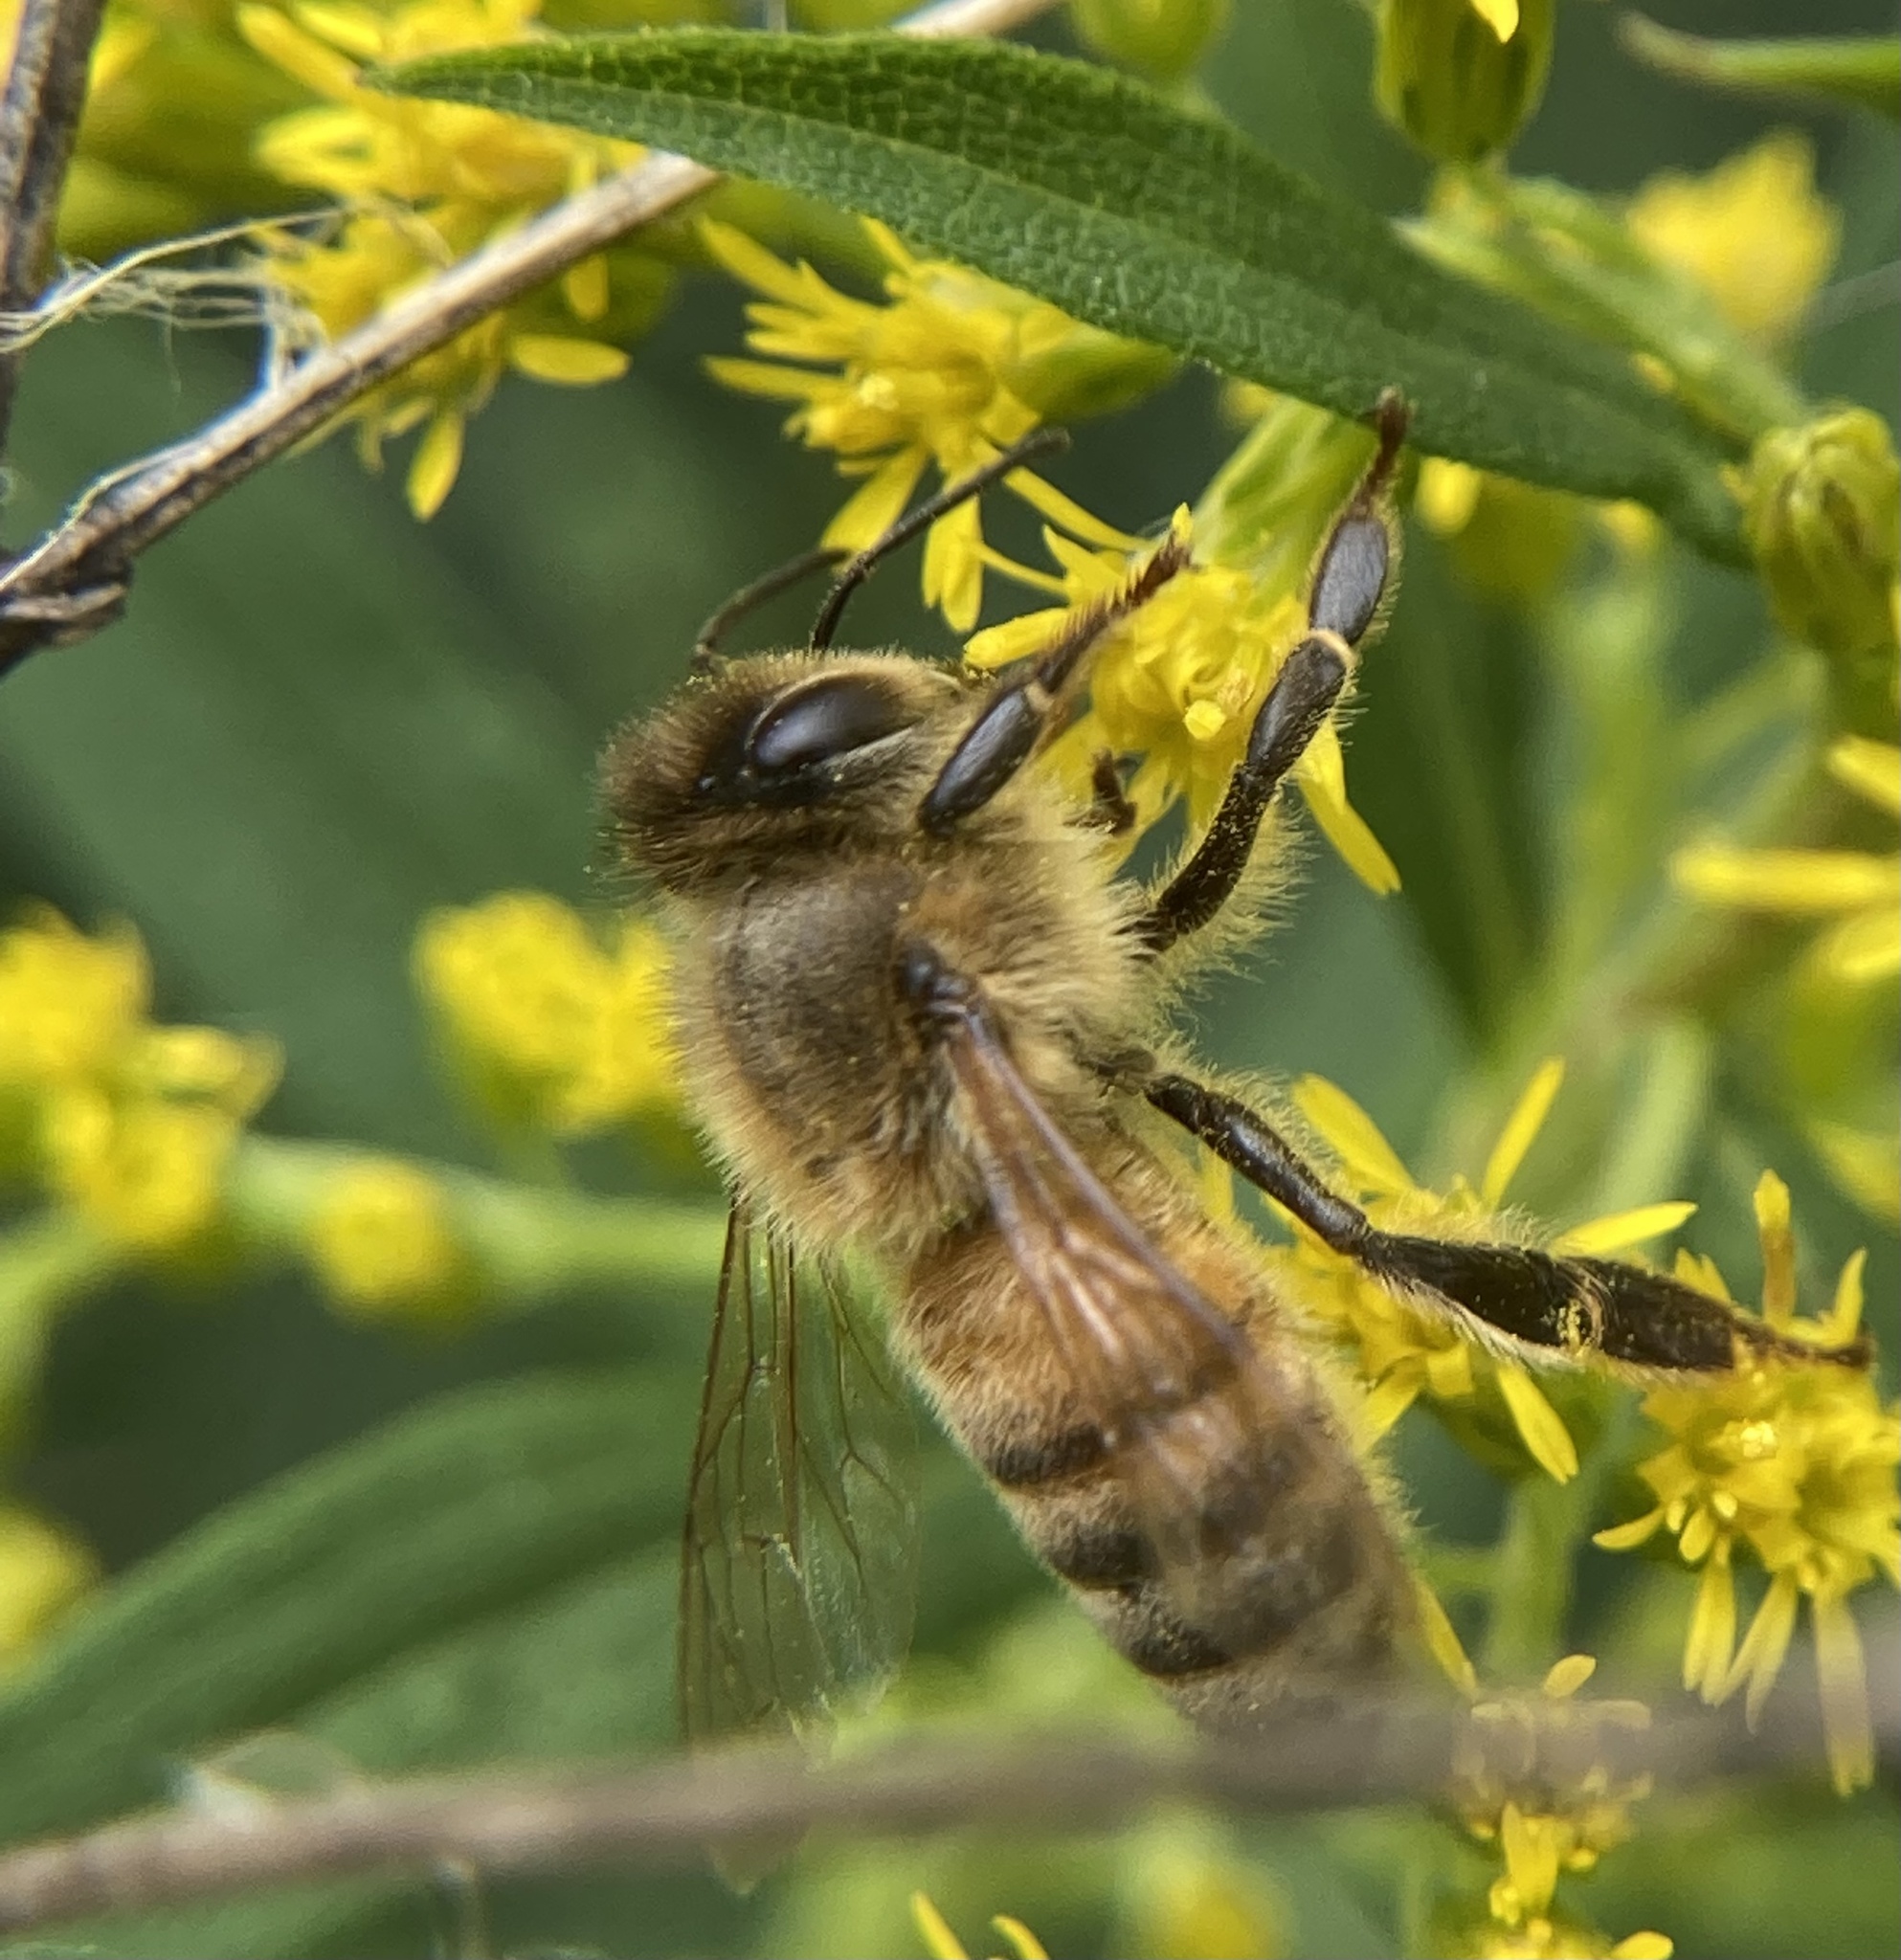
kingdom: Animalia
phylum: Arthropoda
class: Insecta
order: Hymenoptera
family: Apidae
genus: Apis
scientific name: Apis mellifera
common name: Honey bee
